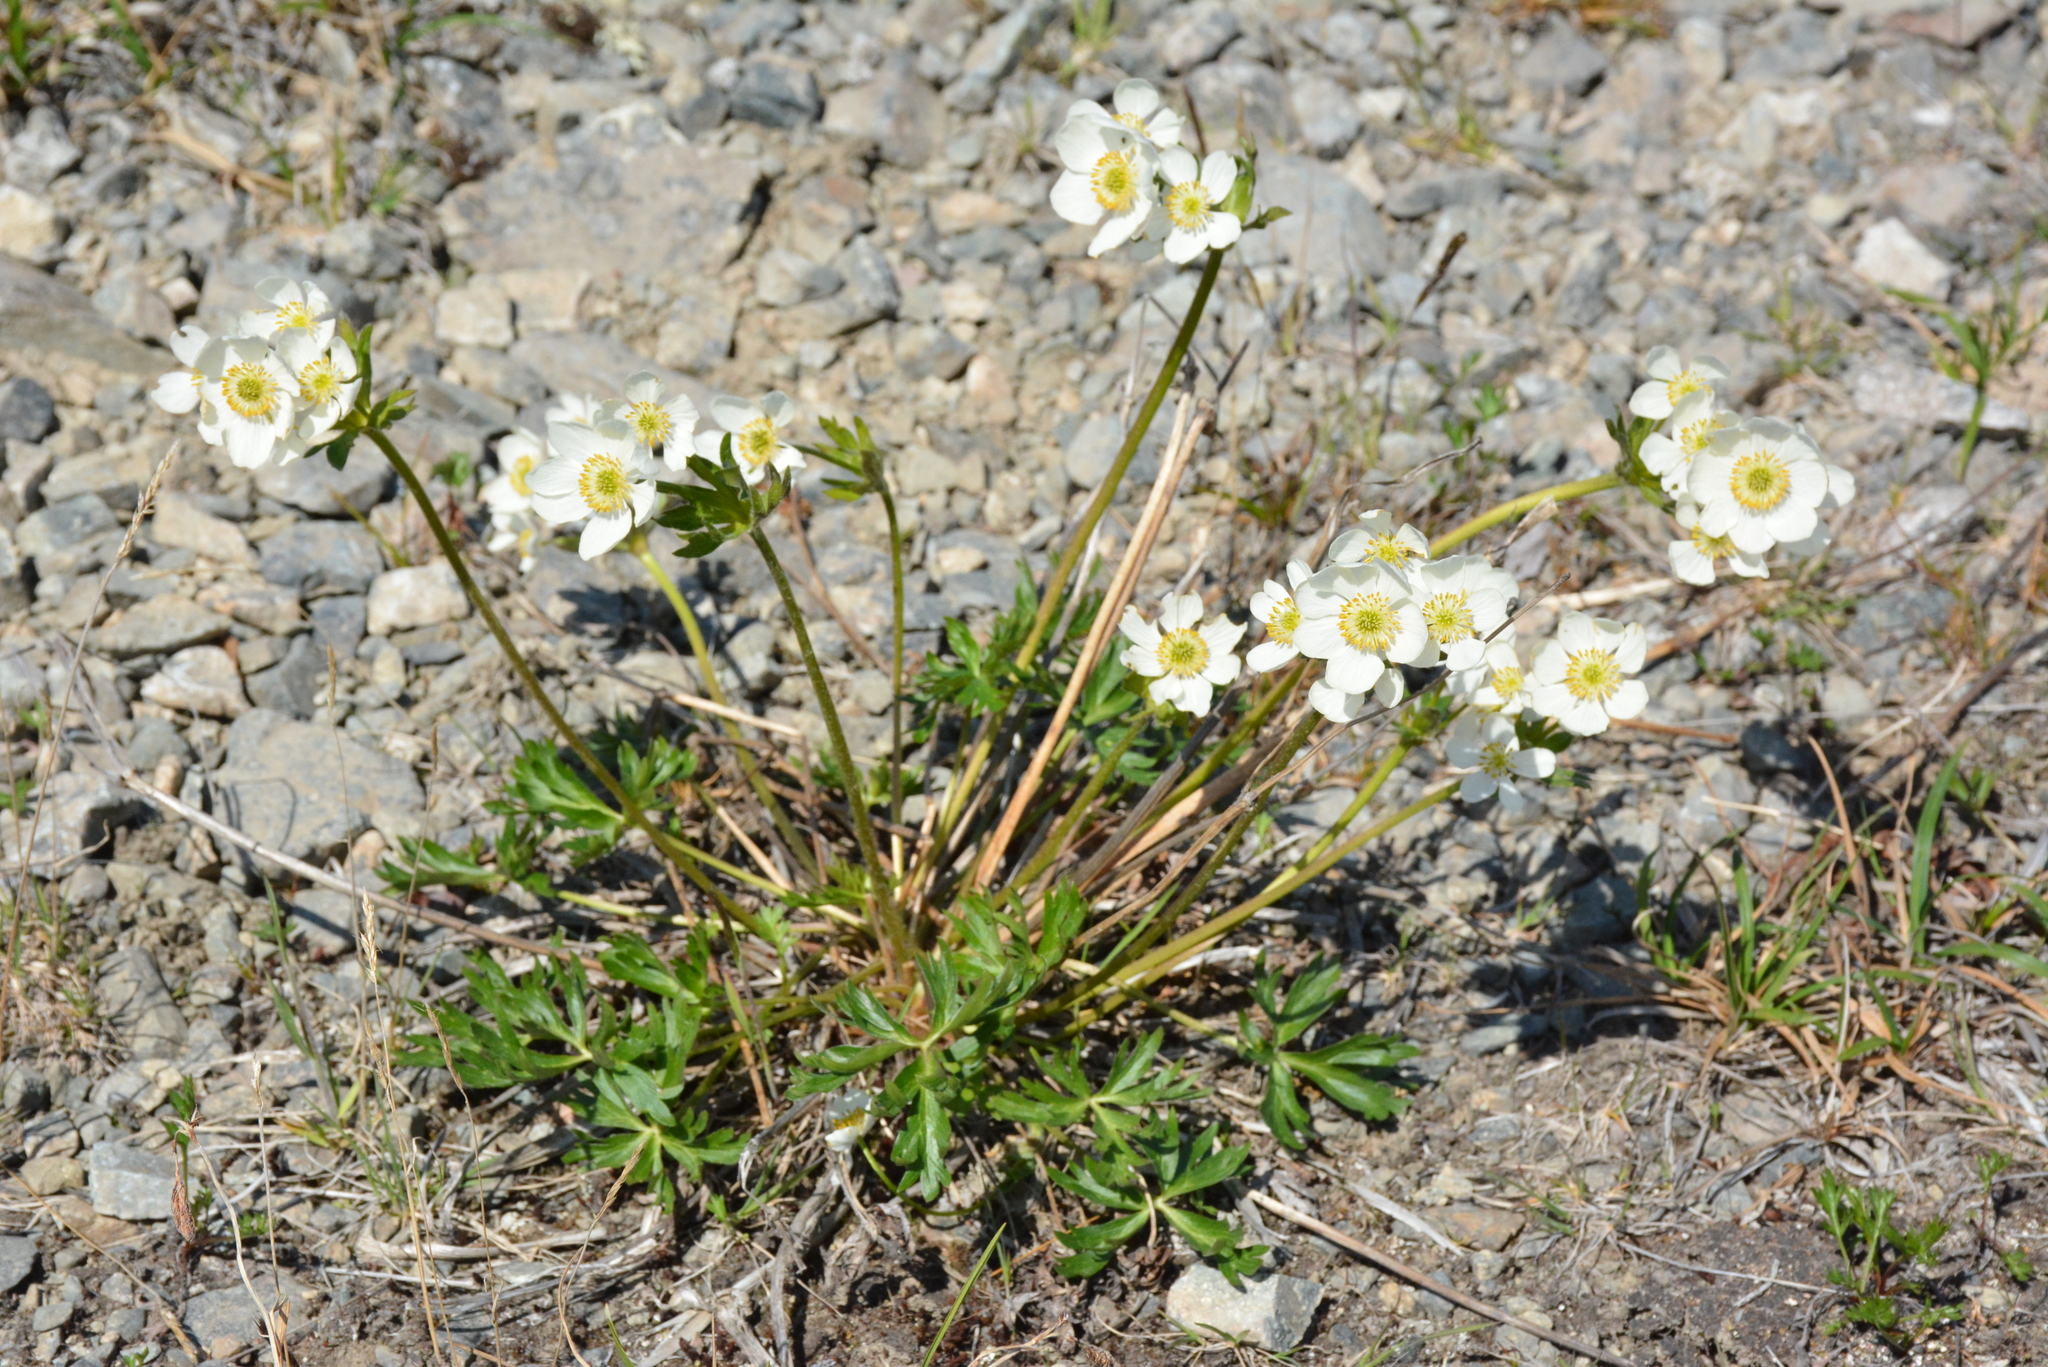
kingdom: Plantae
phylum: Tracheophyta
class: Magnoliopsida
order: Ranunculales
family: Ranunculaceae
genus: Anemonastrum
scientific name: Anemonastrum narcissiflorum
